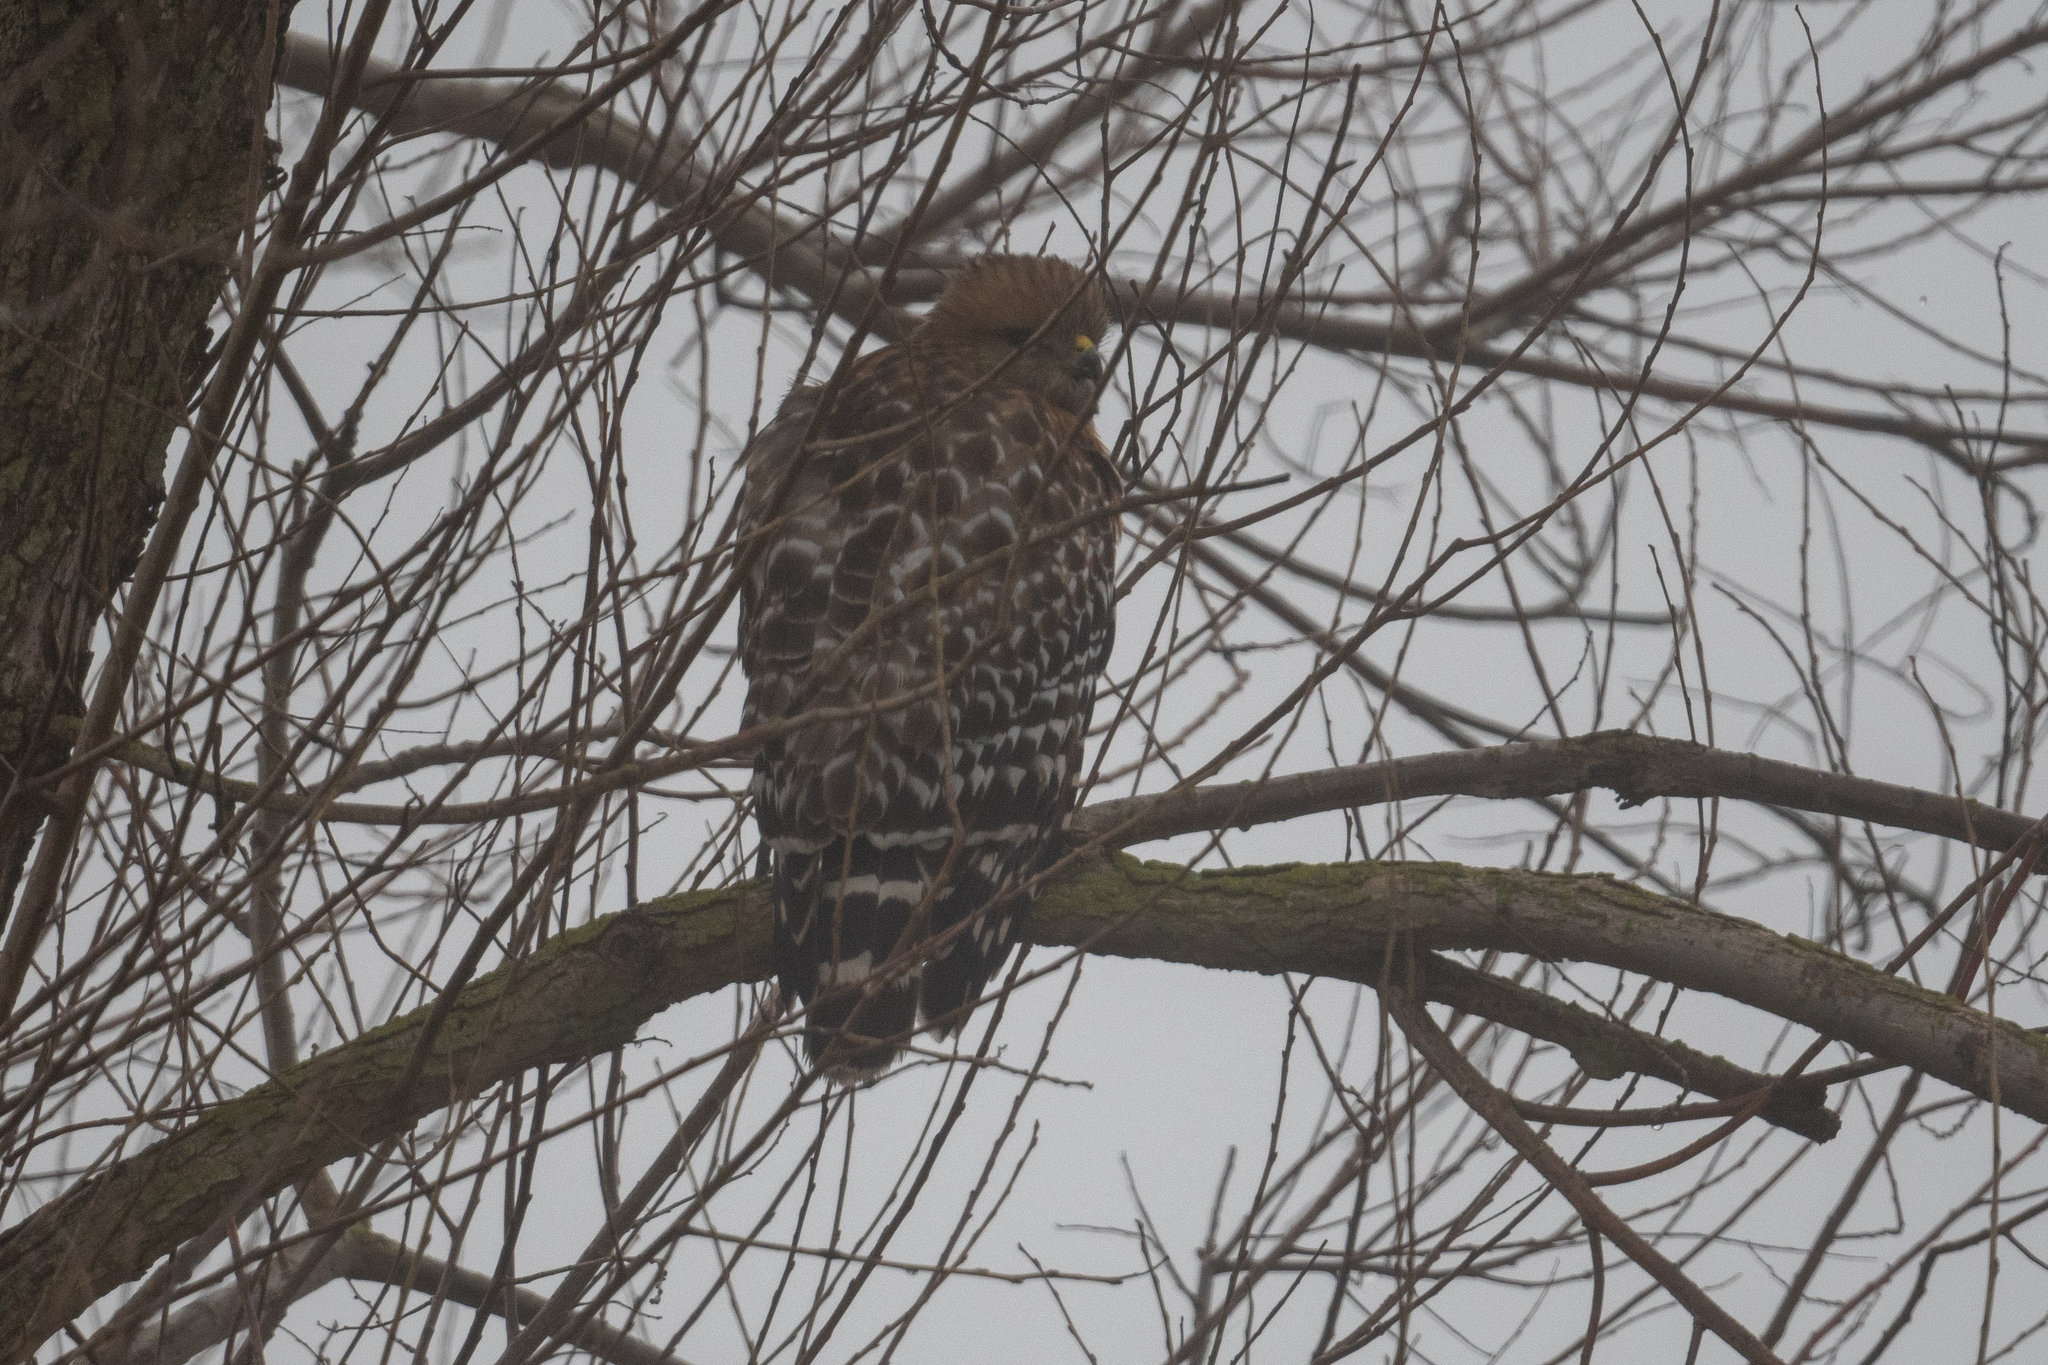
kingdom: Animalia
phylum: Chordata
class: Aves
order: Accipitriformes
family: Accipitridae
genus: Buteo
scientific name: Buteo lineatus
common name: Red-shouldered hawk
